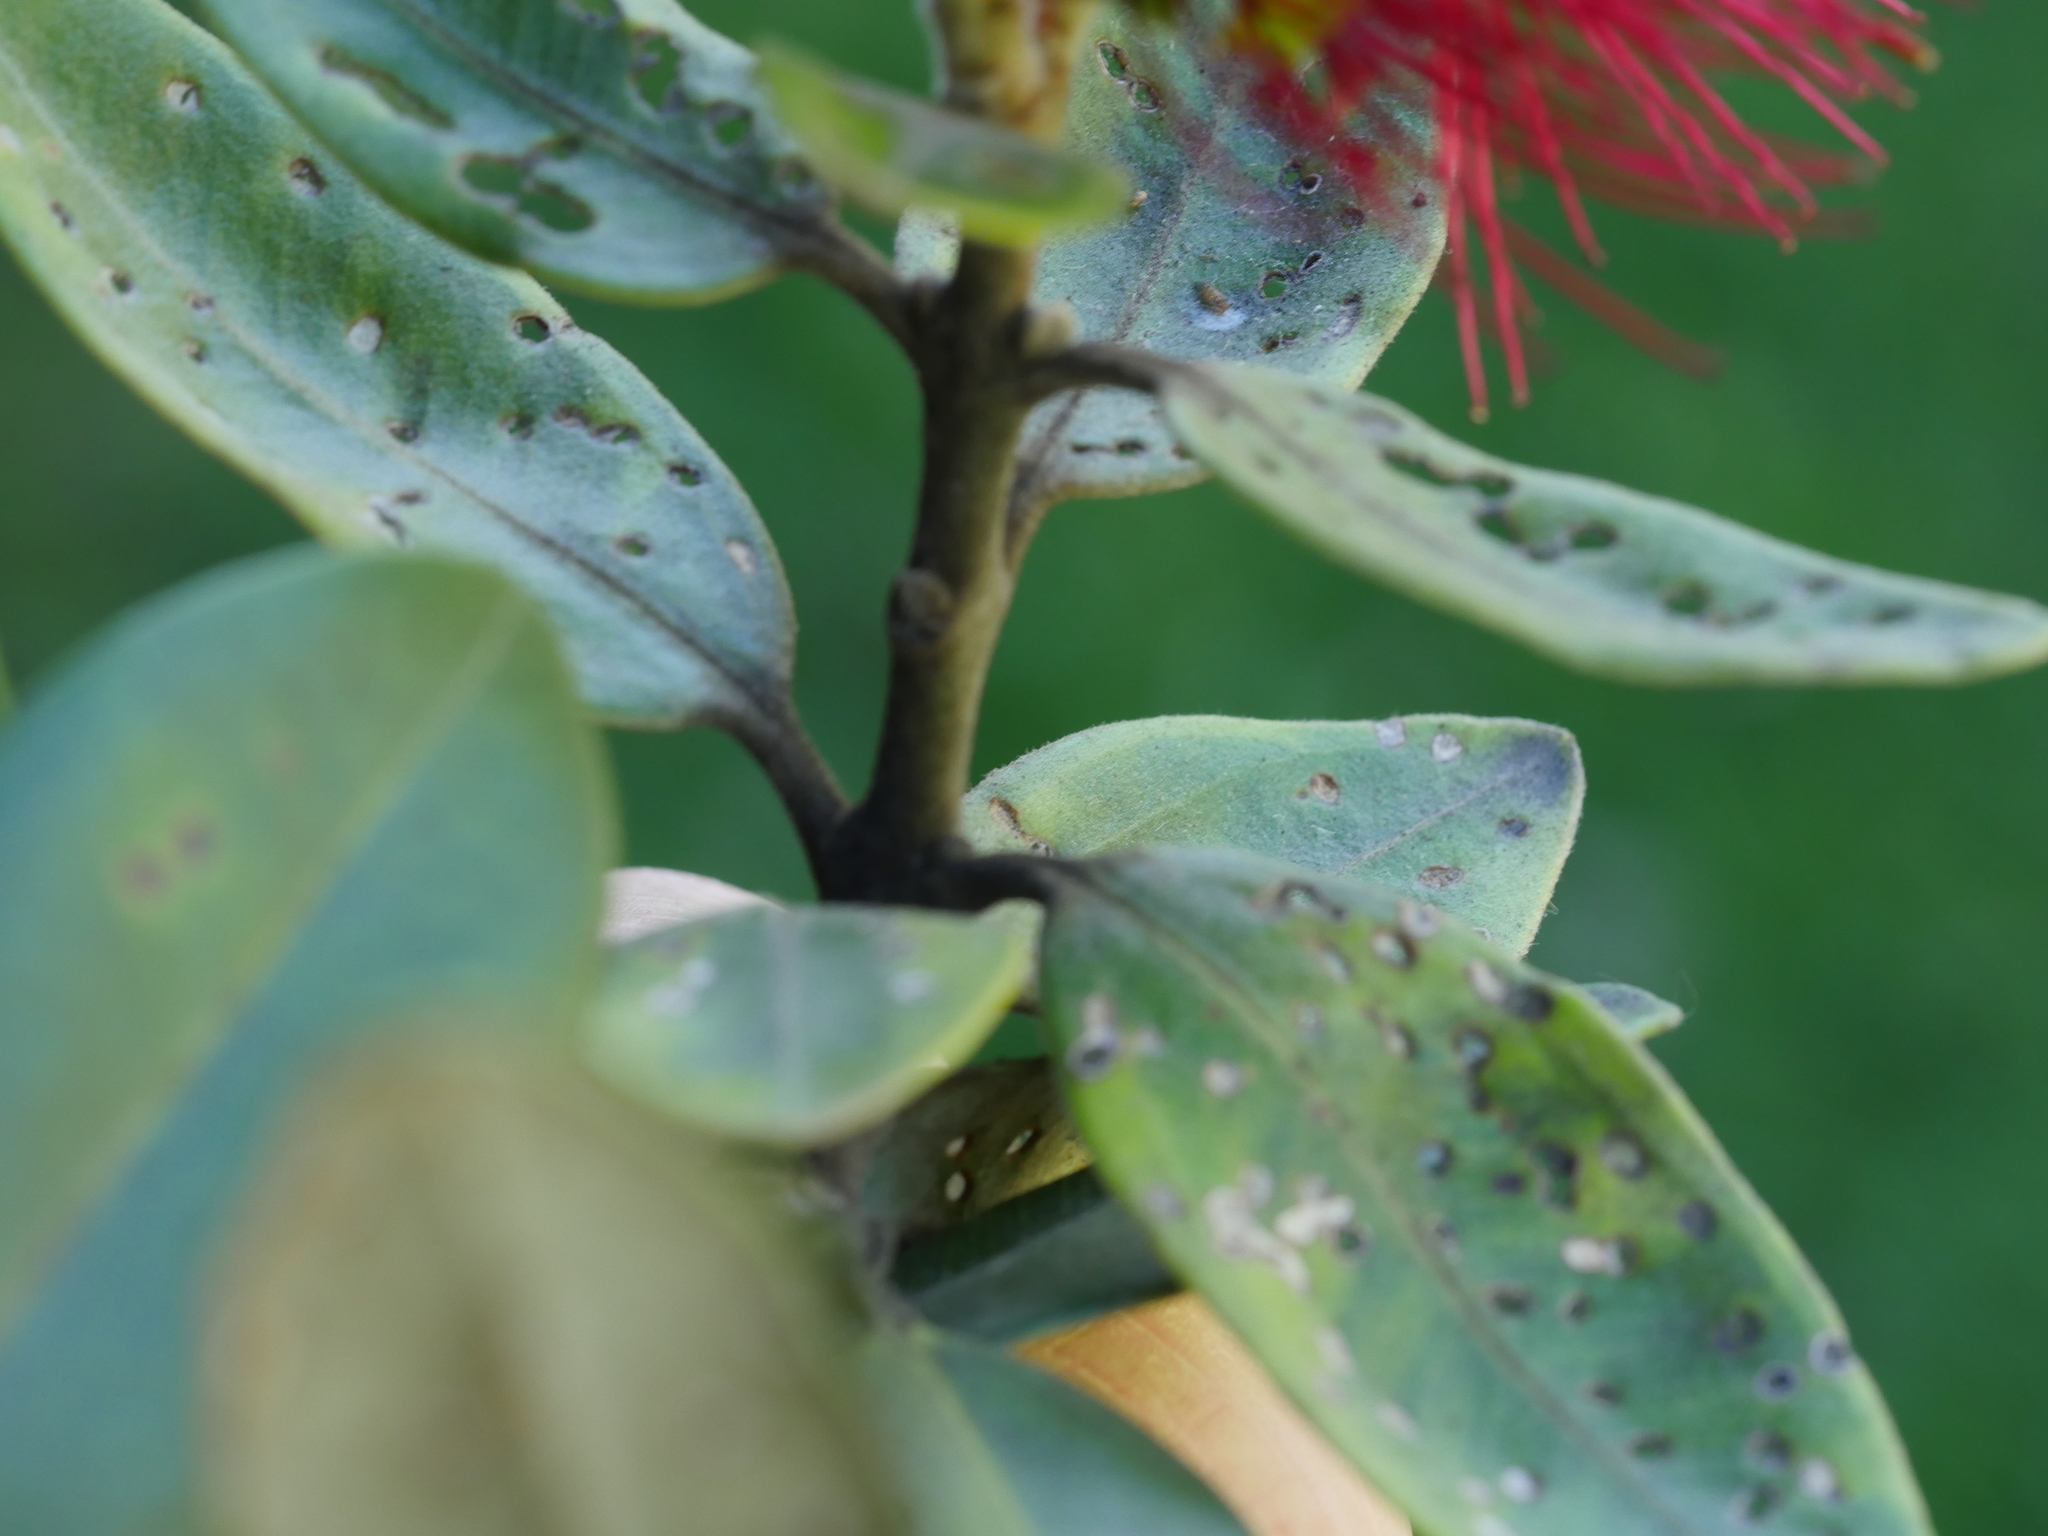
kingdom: Plantae
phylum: Tracheophyta
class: Magnoliopsida
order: Myrtales
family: Myrtaceae
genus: Metrosideros
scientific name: Metrosideros excelsa
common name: New zealand christmastree
